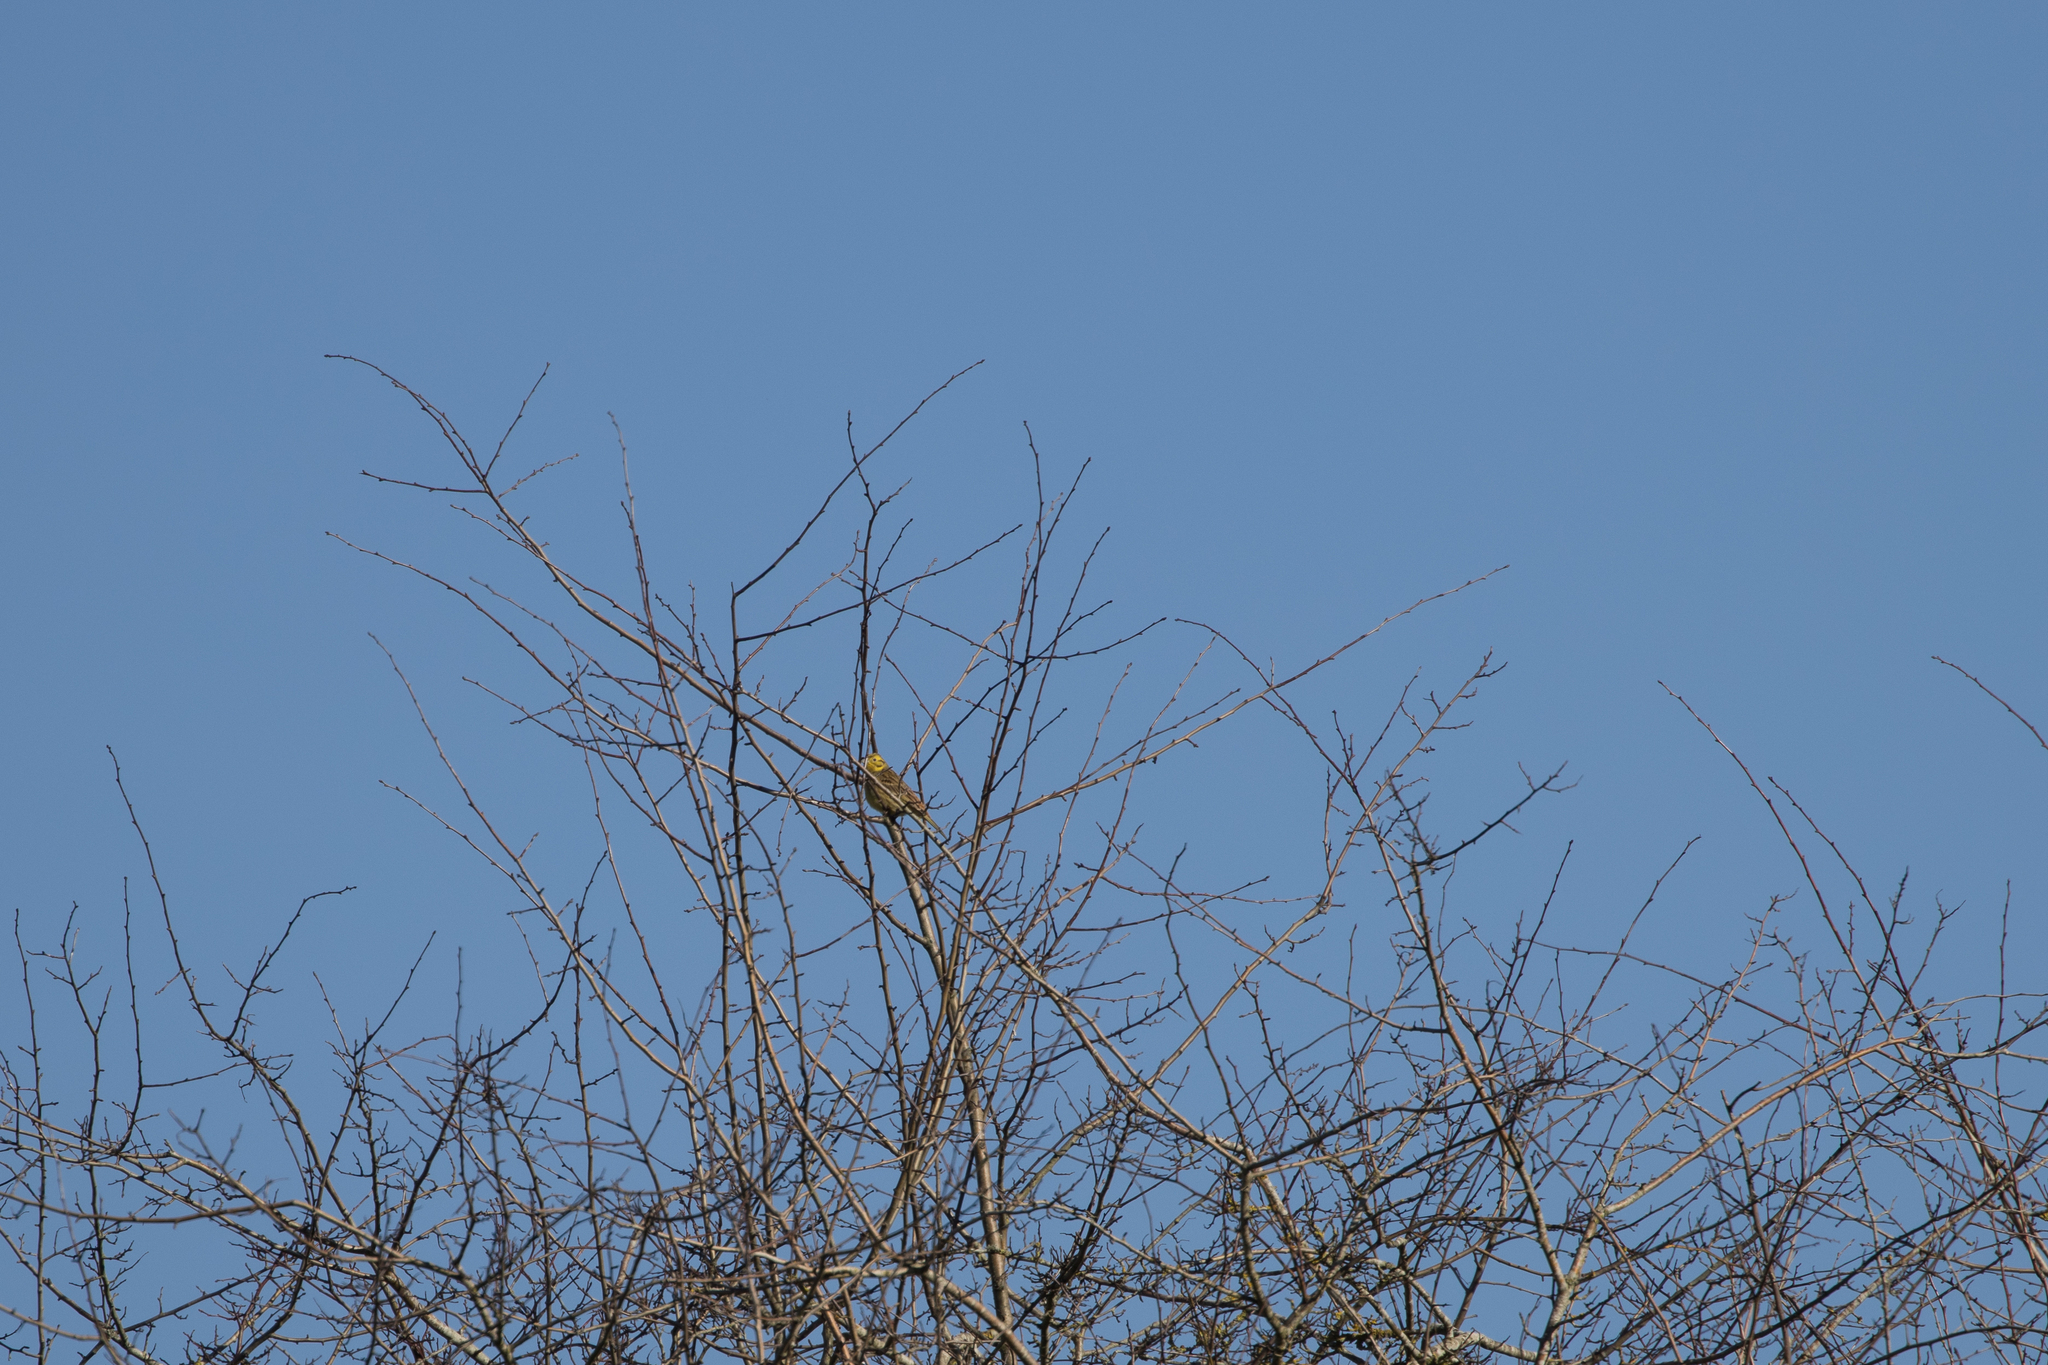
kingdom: Animalia
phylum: Chordata
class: Aves
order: Passeriformes
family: Emberizidae
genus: Emberiza
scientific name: Emberiza citrinella
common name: Yellowhammer
